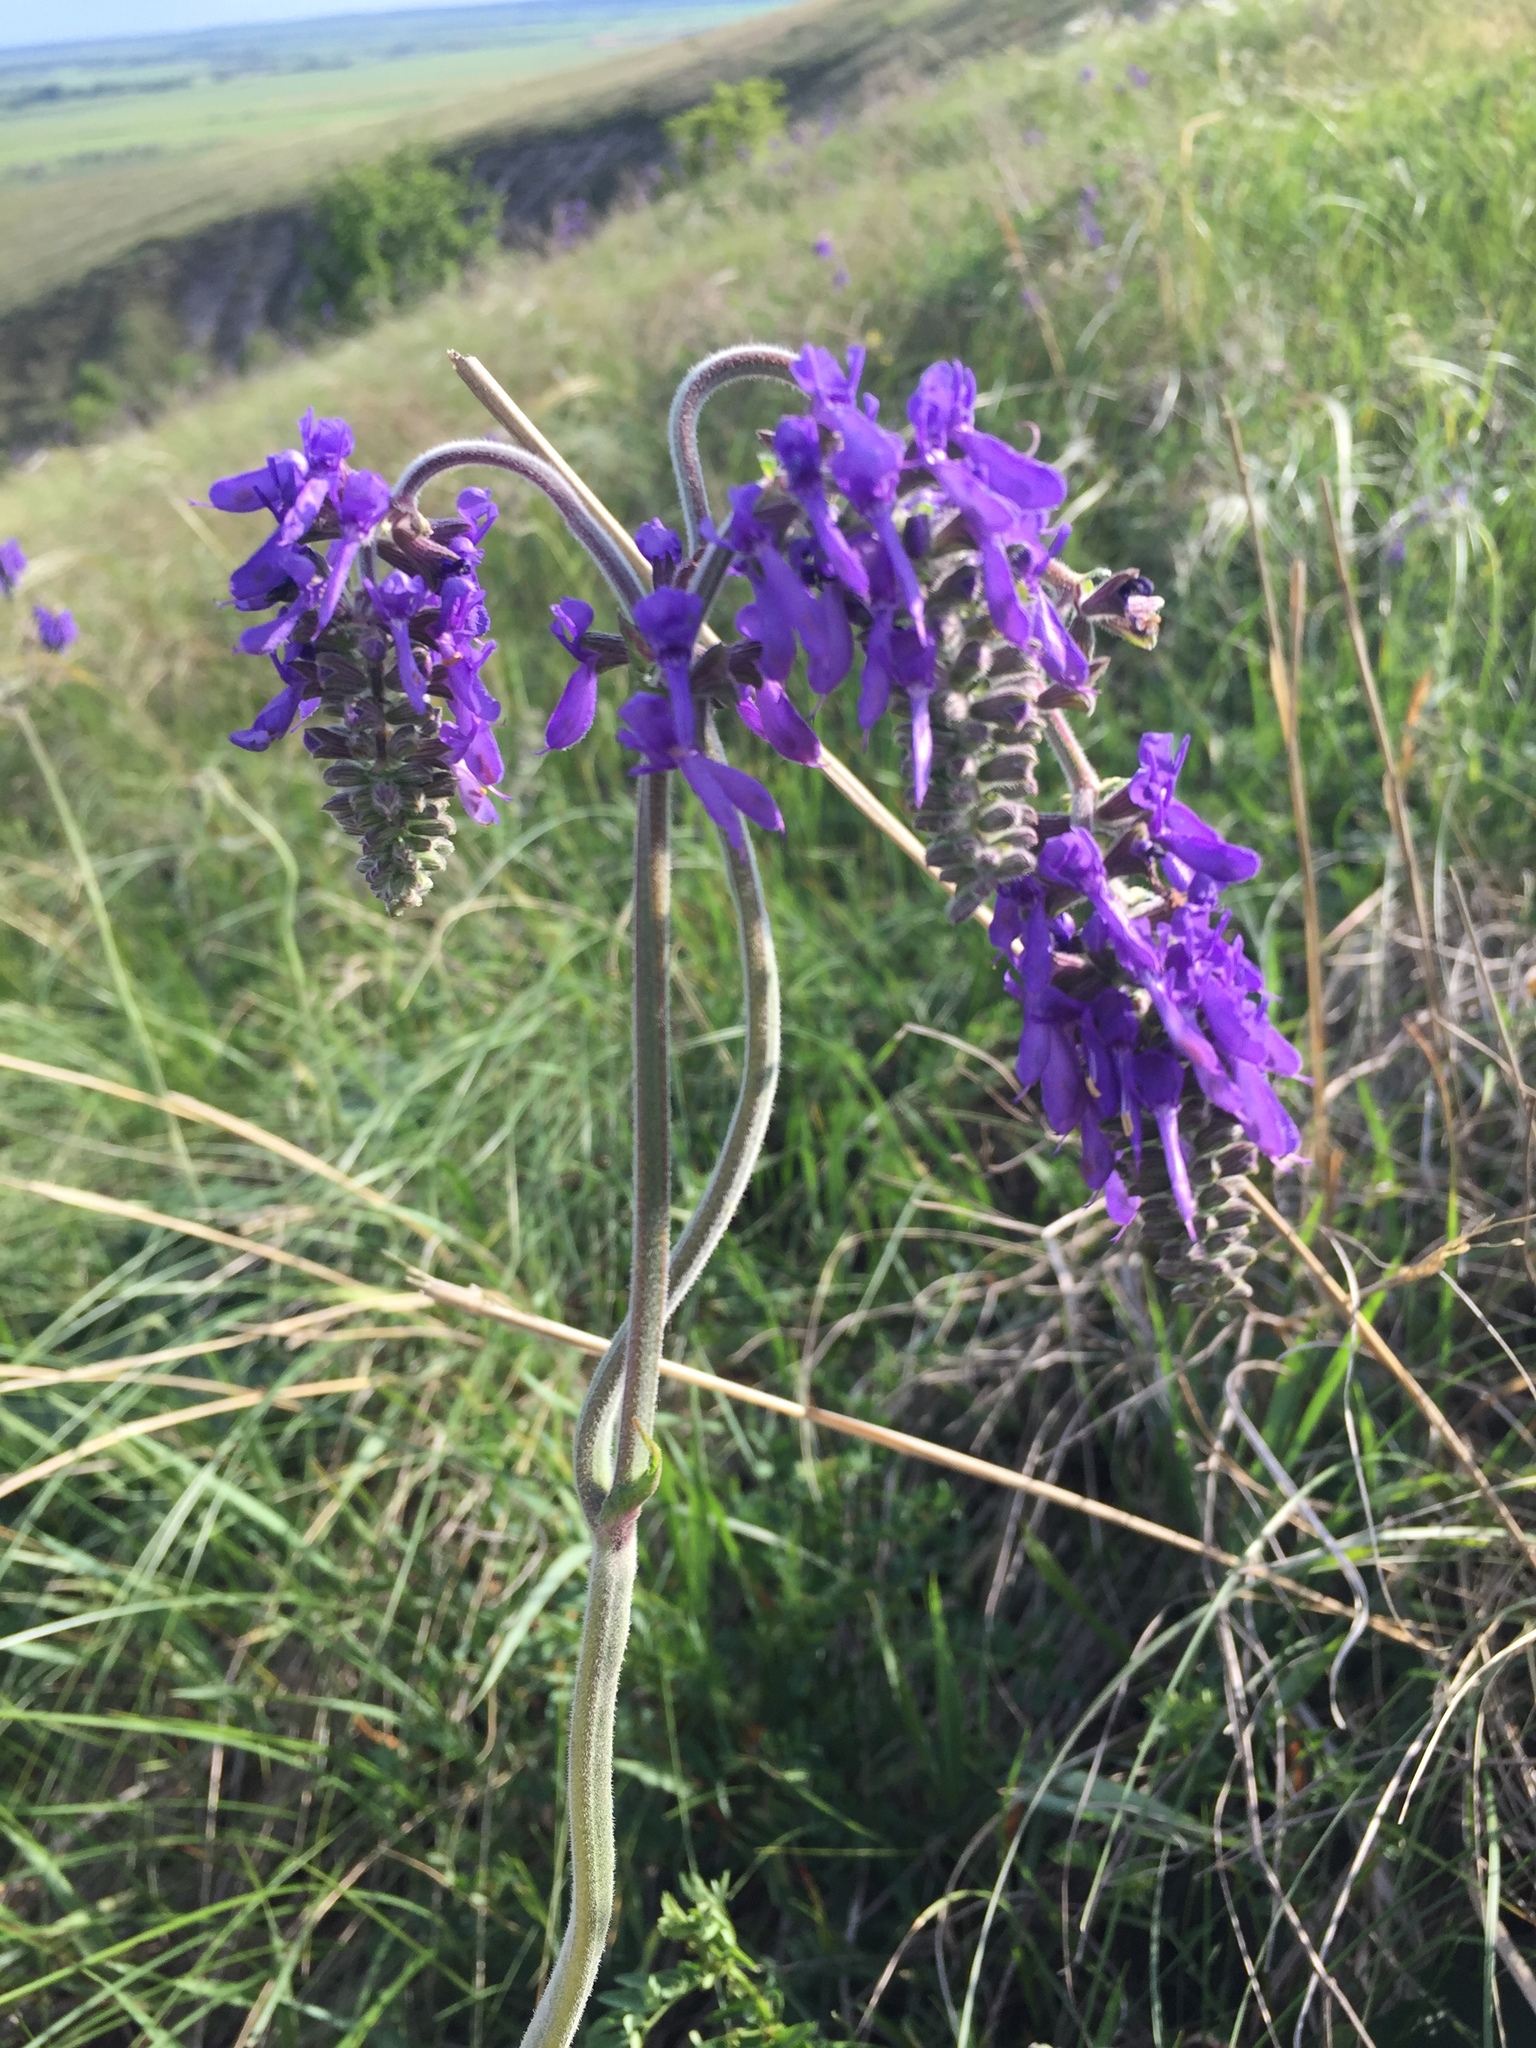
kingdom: Plantae
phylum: Tracheophyta
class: Magnoliopsida
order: Lamiales
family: Lamiaceae
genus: Salvia
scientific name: Salvia nutans
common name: Nodding sage
